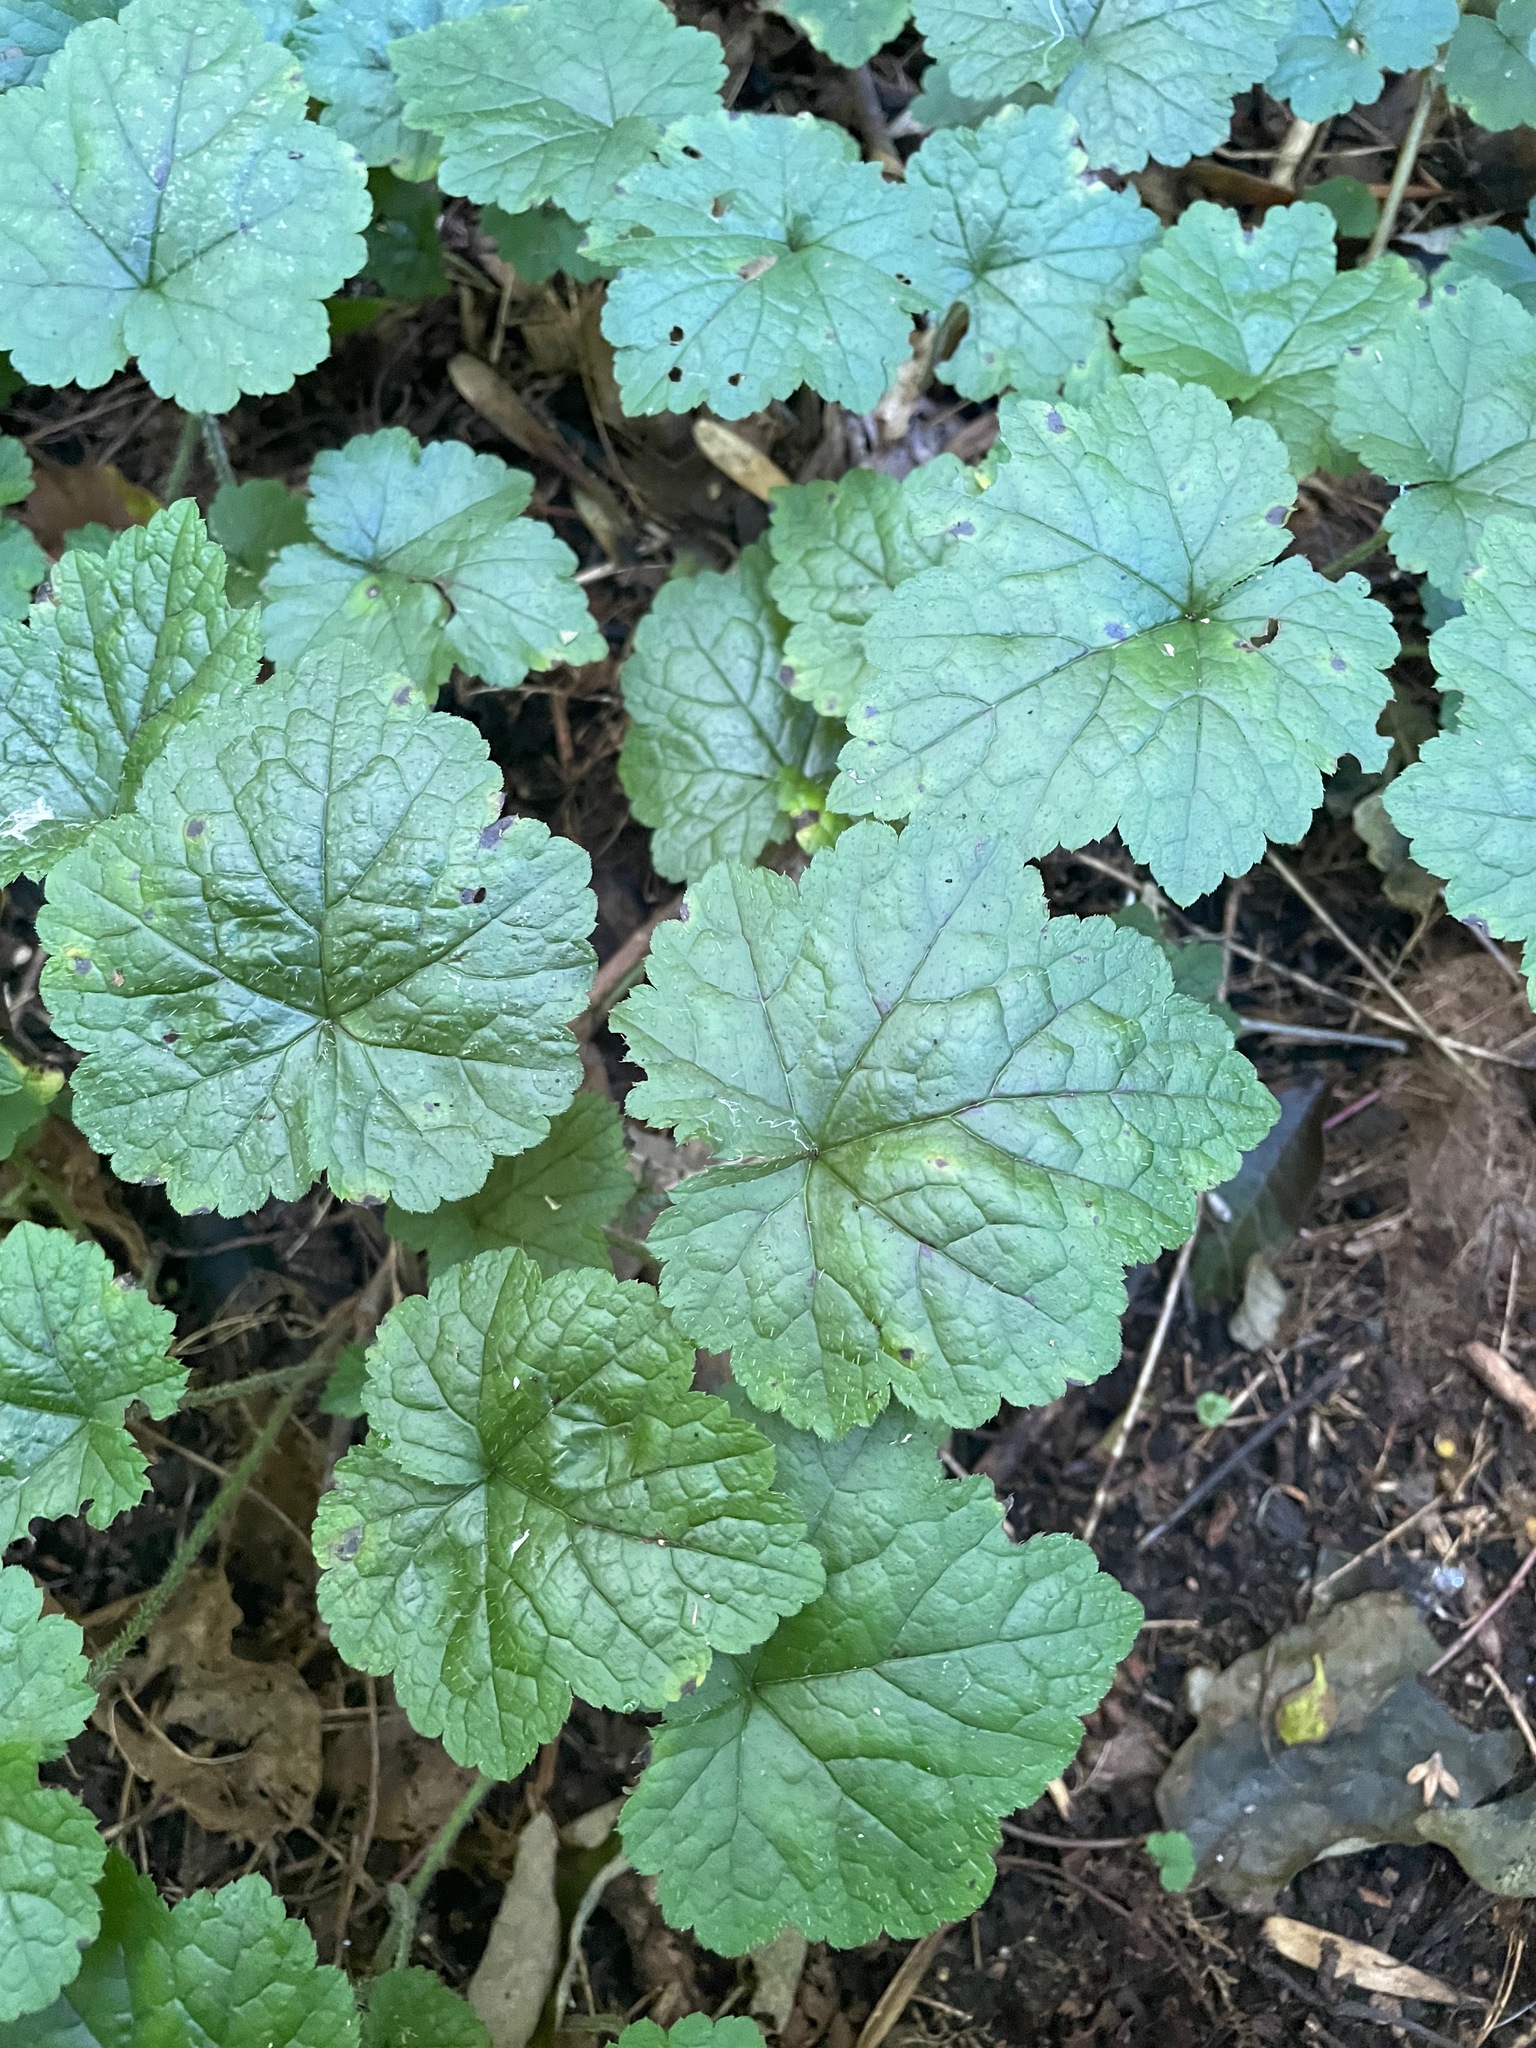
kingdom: Plantae
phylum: Tracheophyta
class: Magnoliopsida
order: Saxifragales
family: Saxifragaceae
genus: Tiarella
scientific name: Tiarella stolonifera
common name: Stoloniferous foamflower
